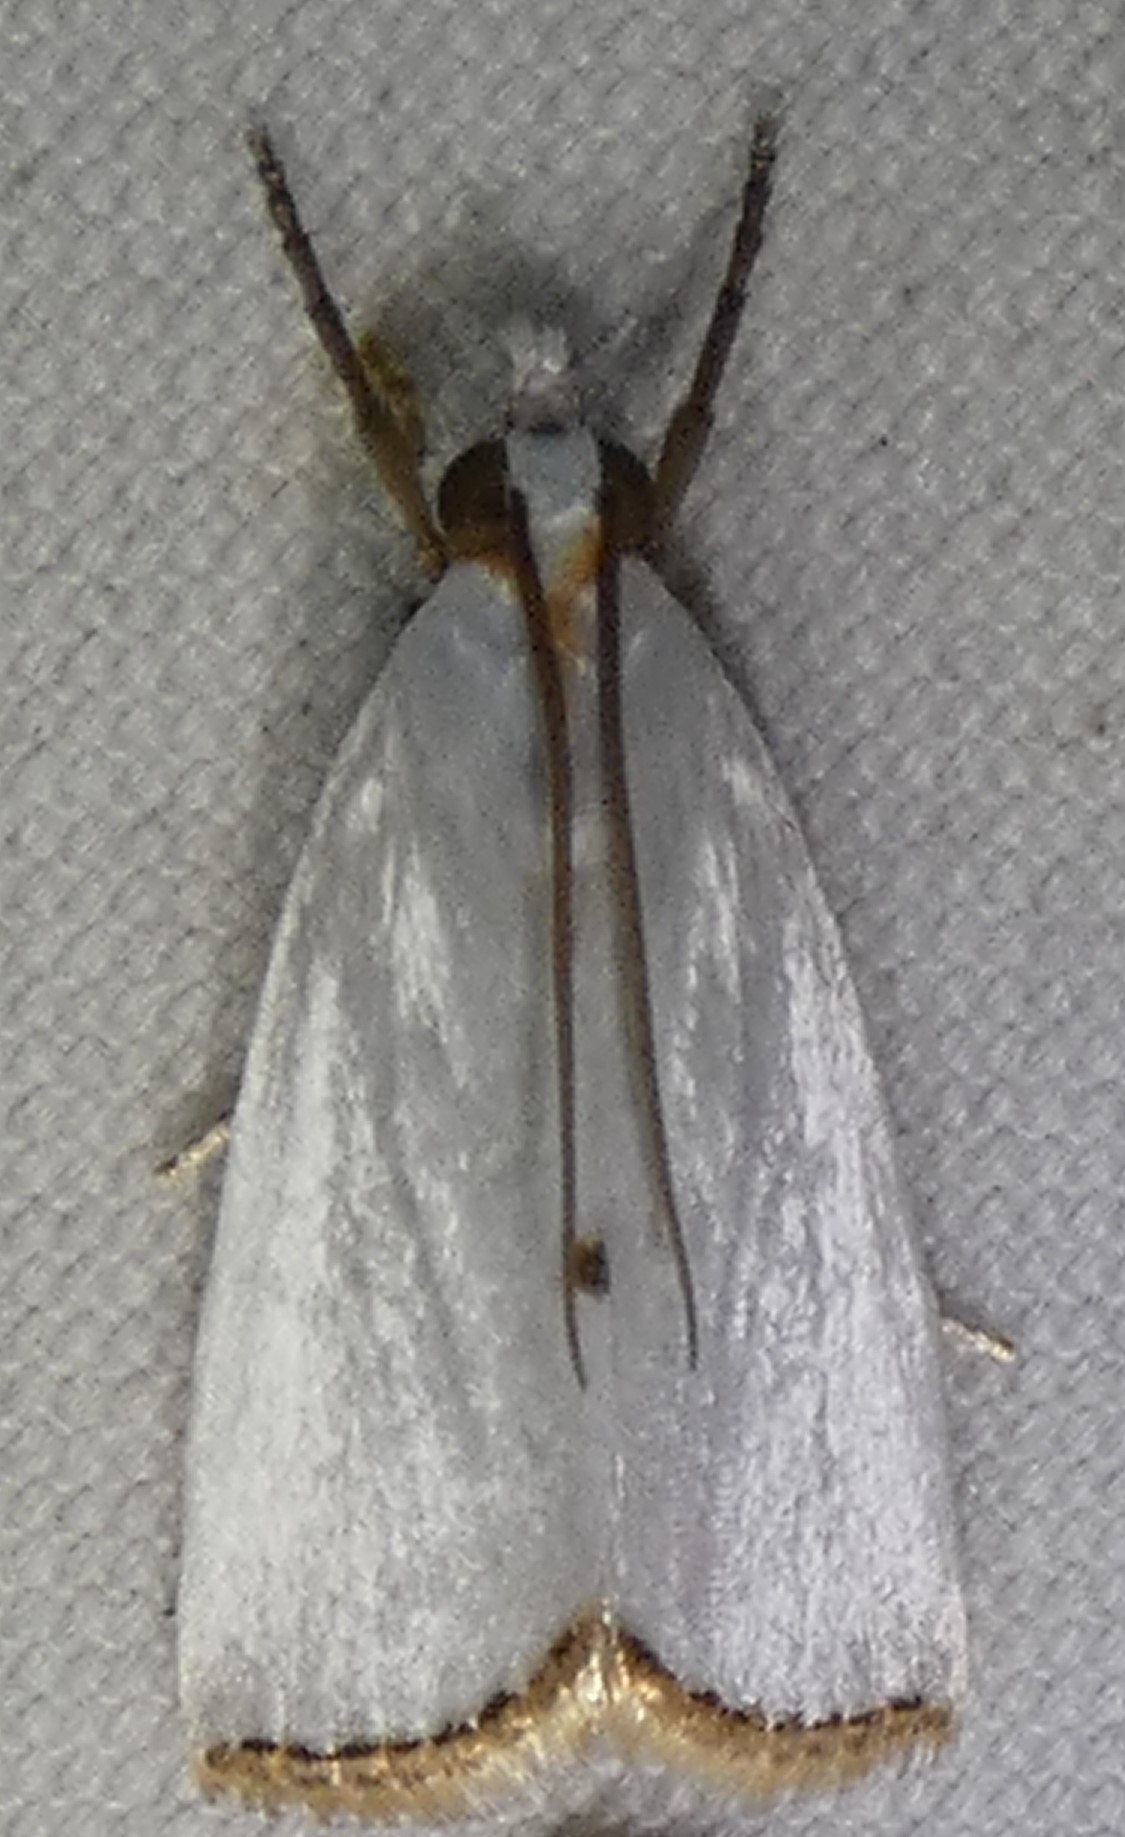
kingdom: Animalia
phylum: Arthropoda
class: Insecta
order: Lepidoptera
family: Crambidae
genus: Argyria
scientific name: Argyria nivalis
